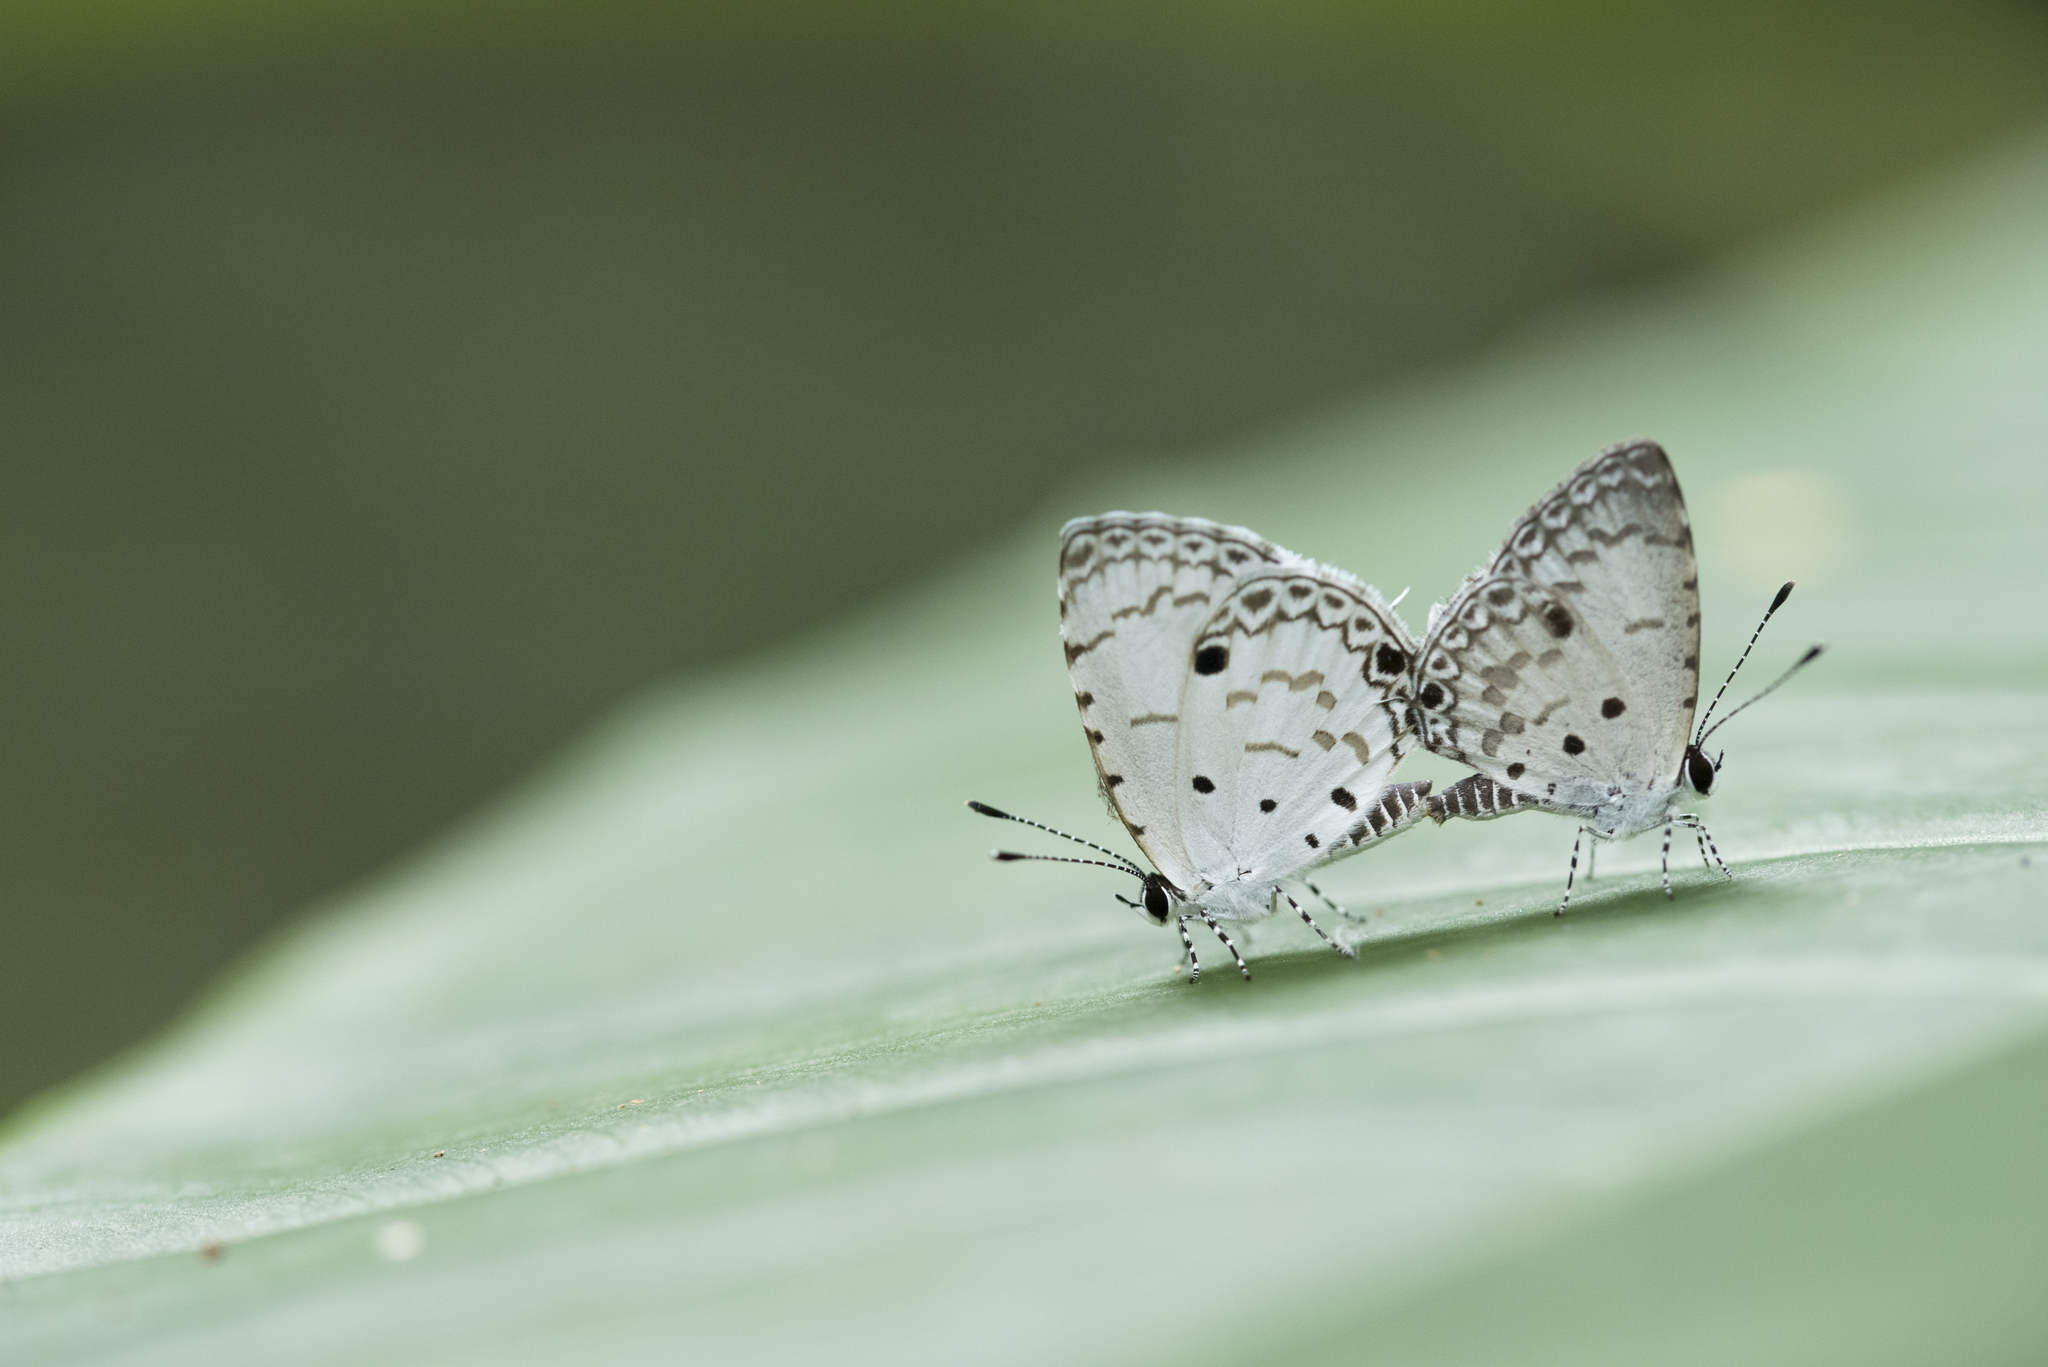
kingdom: Animalia
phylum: Arthropoda
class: Insecta
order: Lepidoptera
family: Lycaenidae
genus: Megisba
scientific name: Megisba malaya
